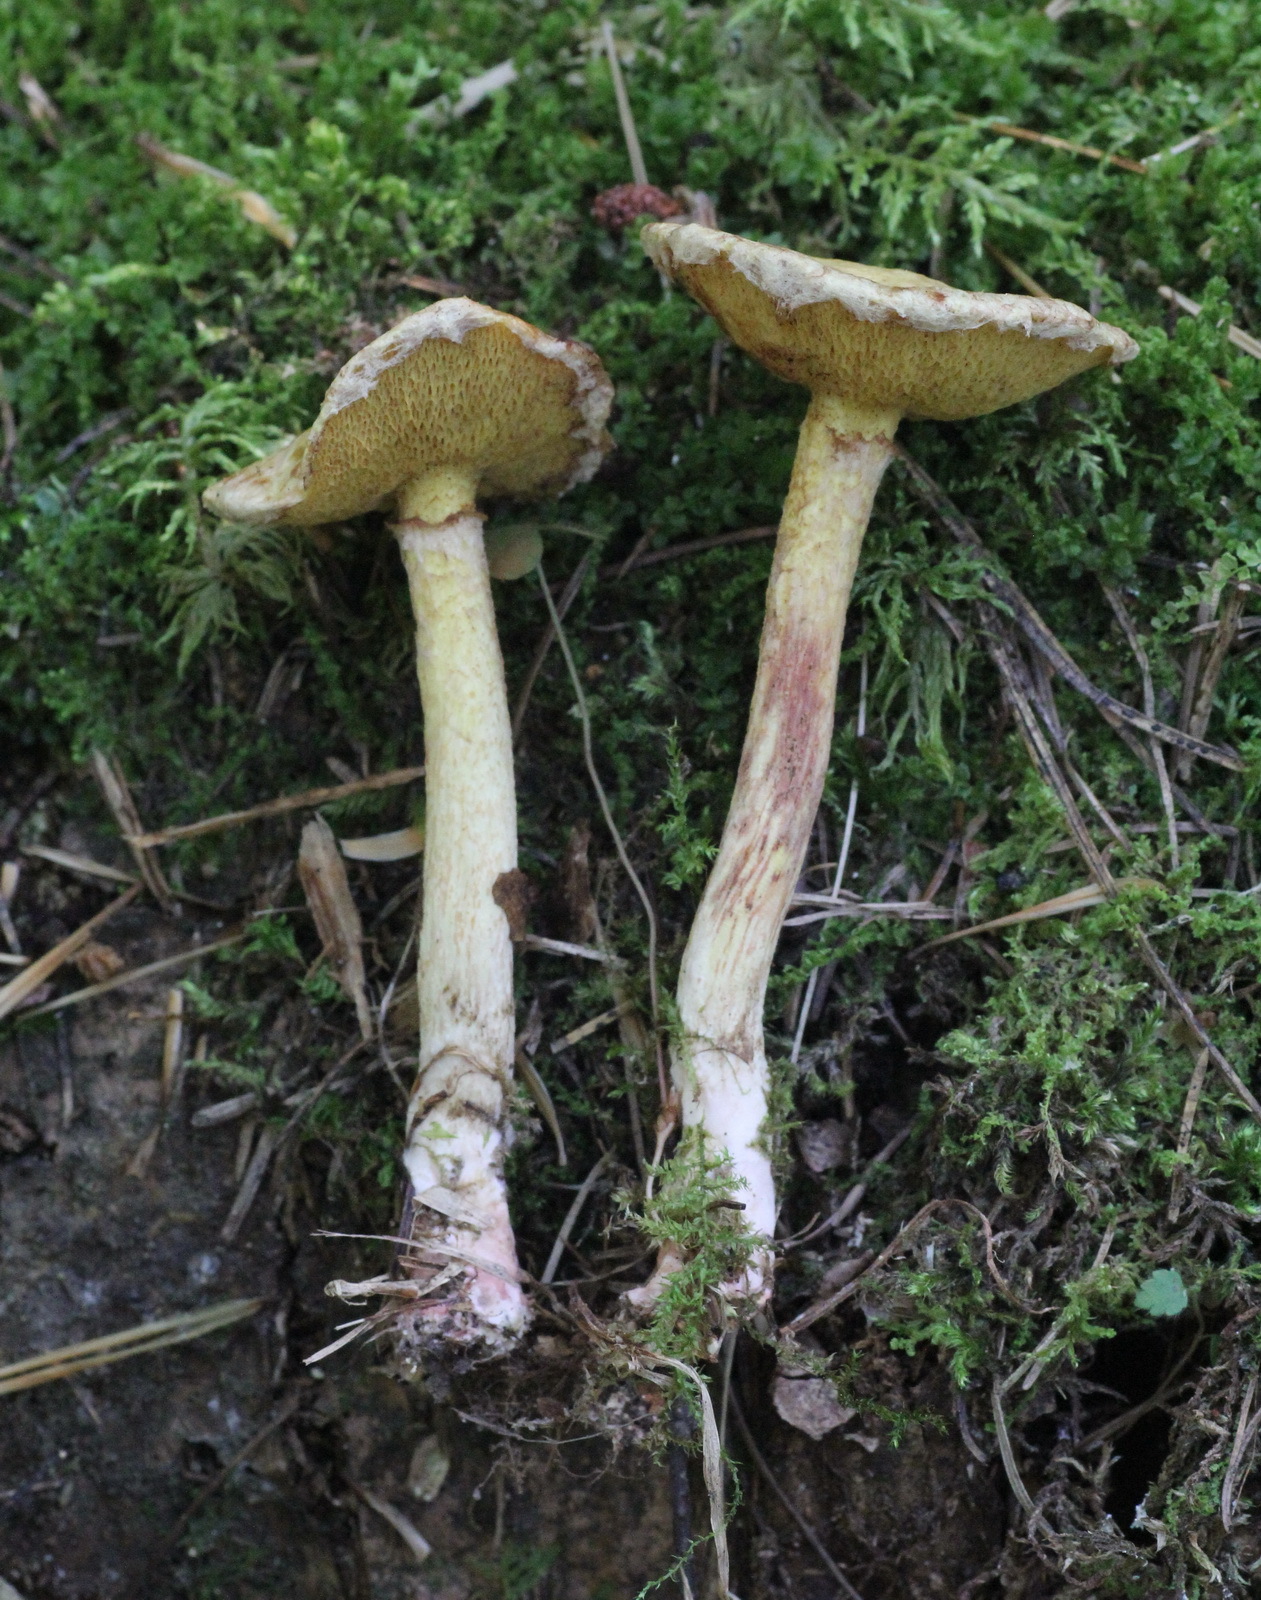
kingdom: Fungi
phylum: Basidiomycota
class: Agaricomycetes
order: Boletales
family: Suillaceae
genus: Suillus
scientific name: Suillus americanus
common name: Chicken fat mushroom
